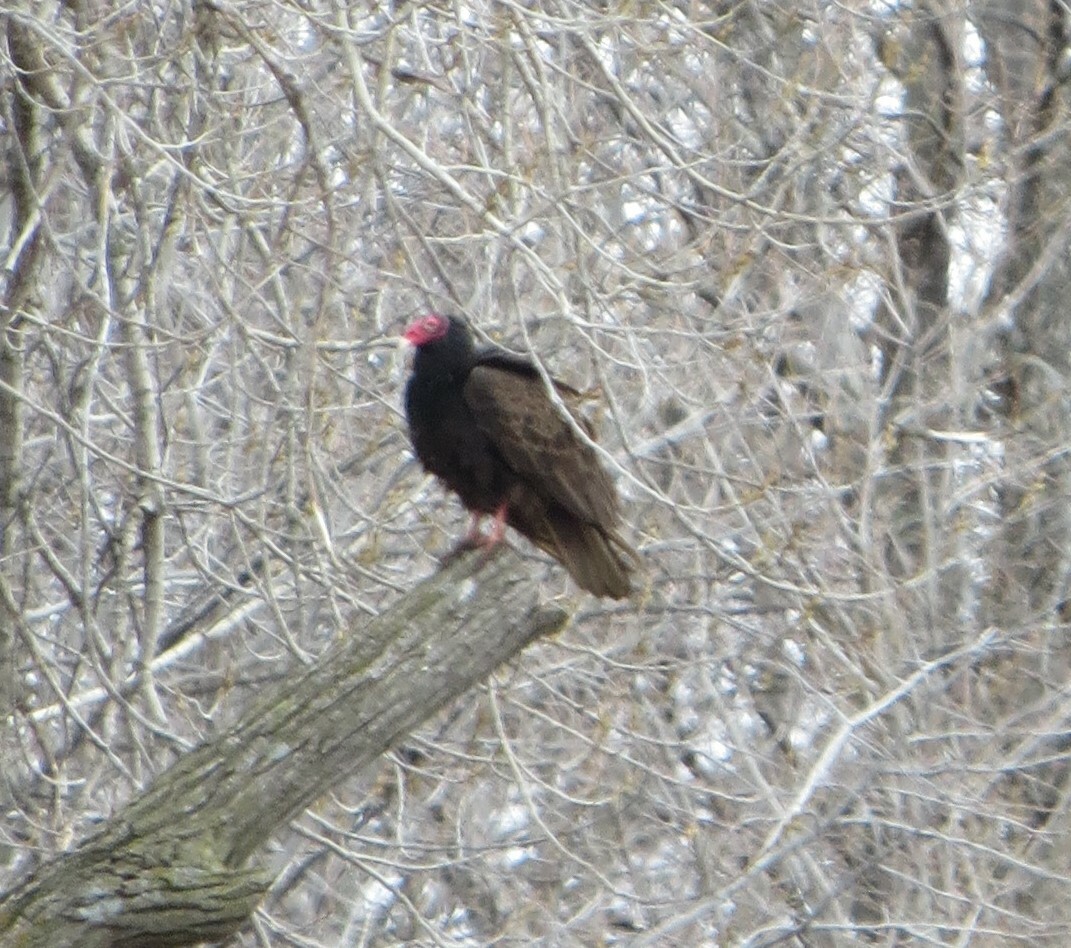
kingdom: Animalia
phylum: Chordata
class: Aves
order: Accipitriformes
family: Cathartidae
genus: Cathartes
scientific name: Cathartes aura
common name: Turkey vulture
